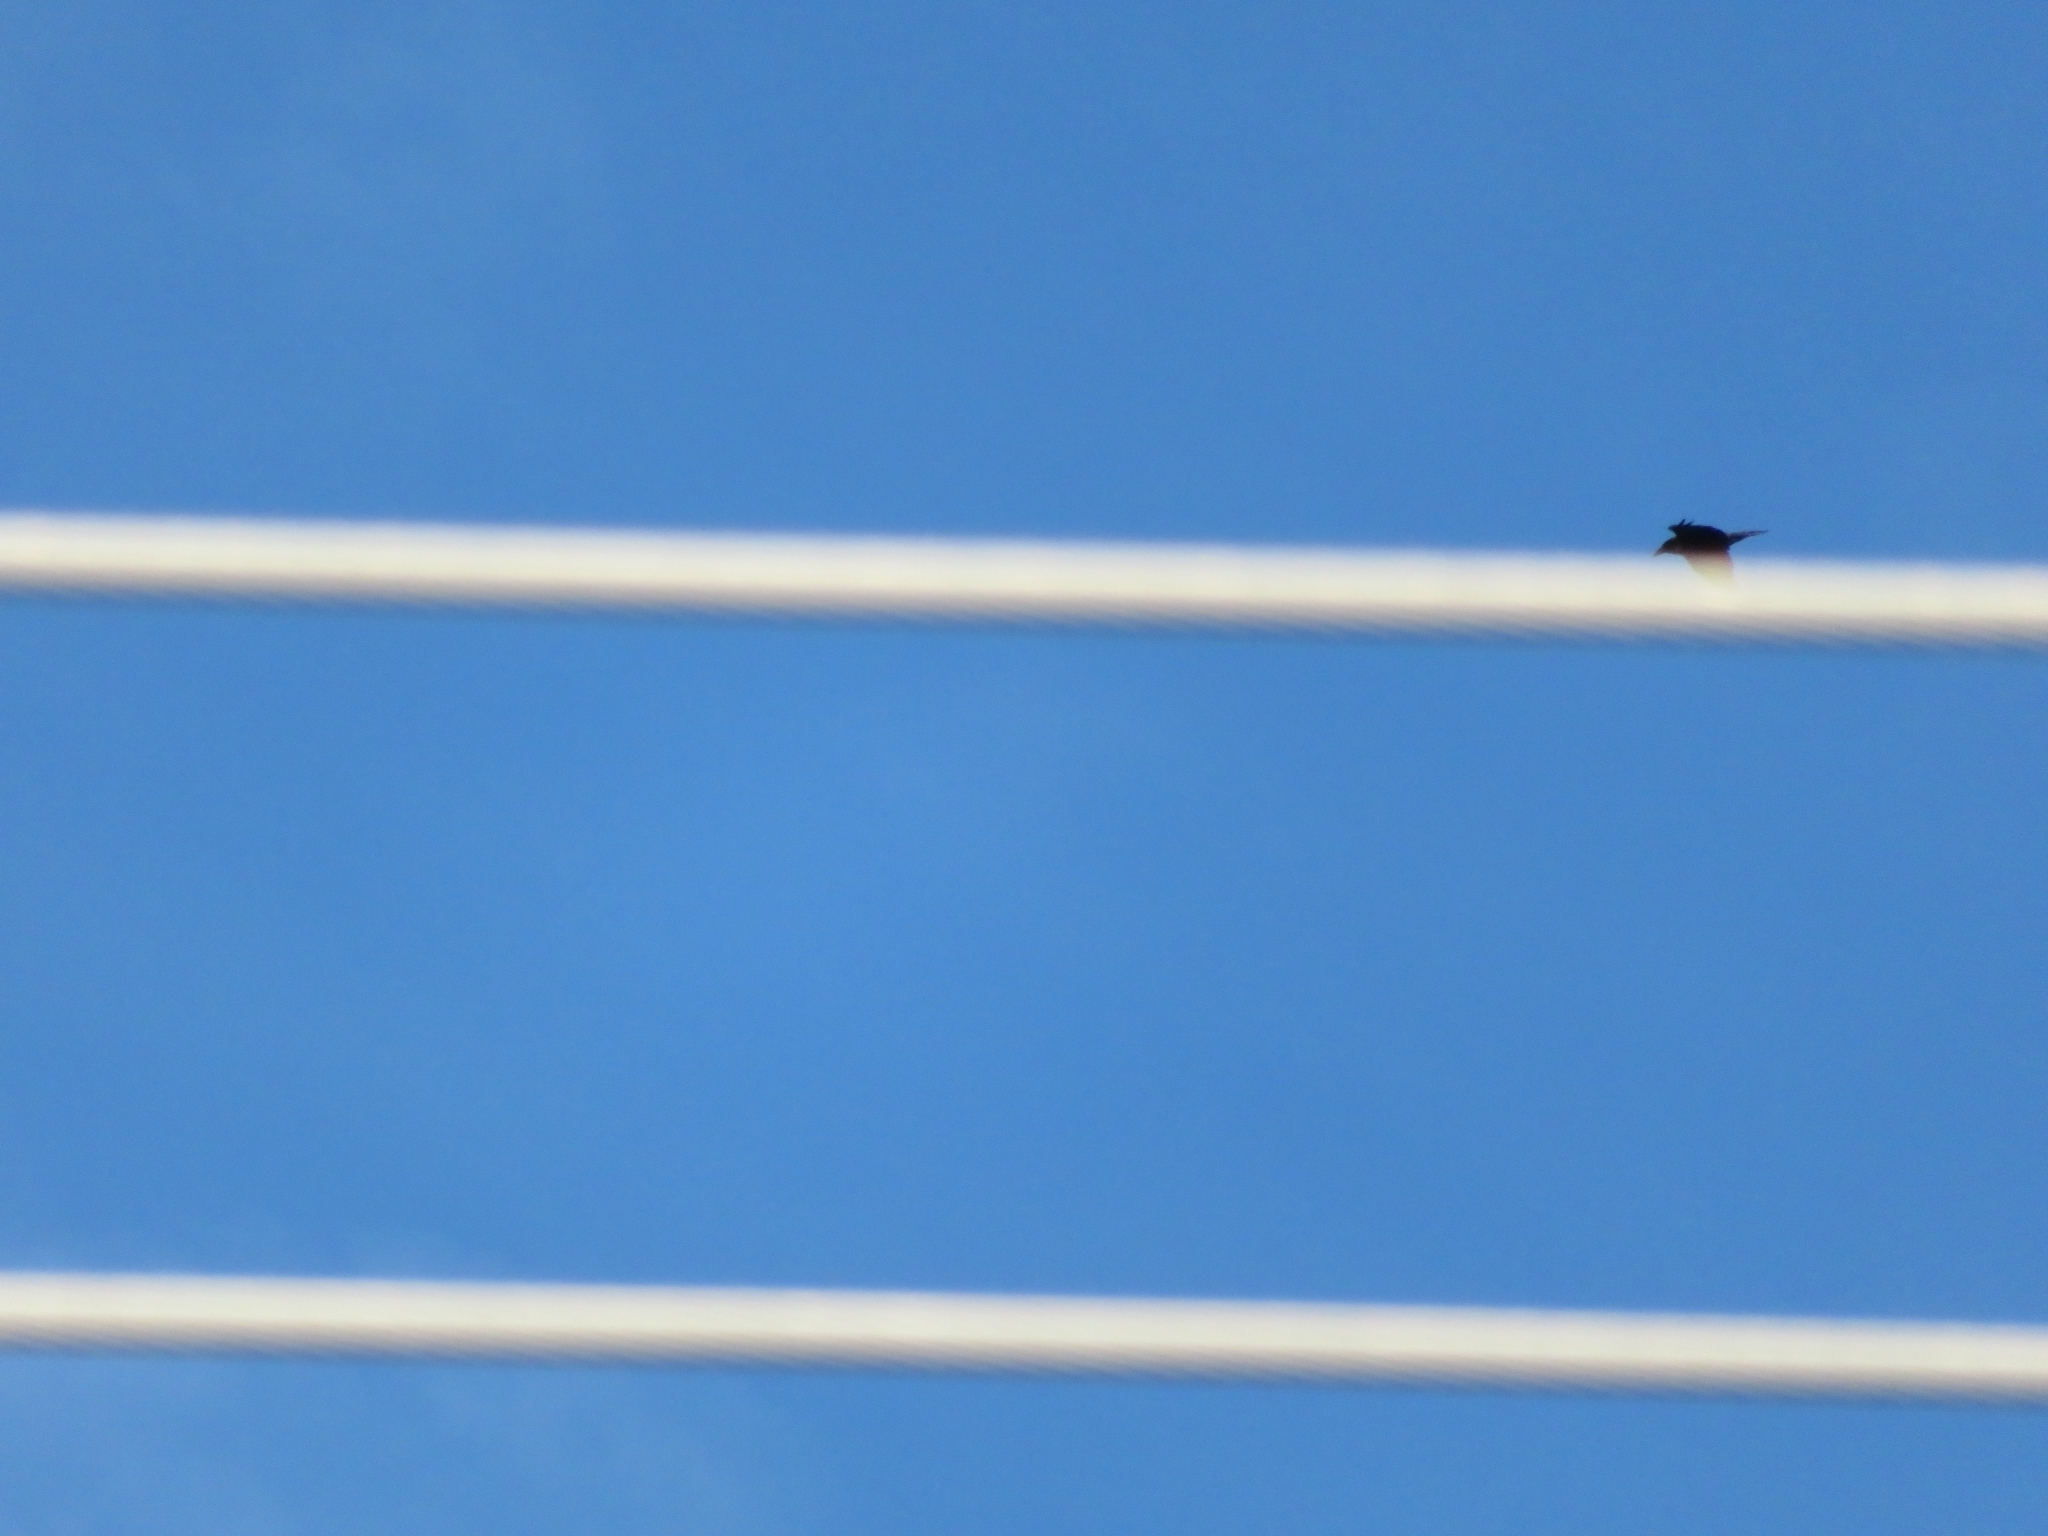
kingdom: Animalia
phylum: Chordata
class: Aves
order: Passeriformes
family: Corvidae
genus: Corvus
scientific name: Corvus corax
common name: Common raven
